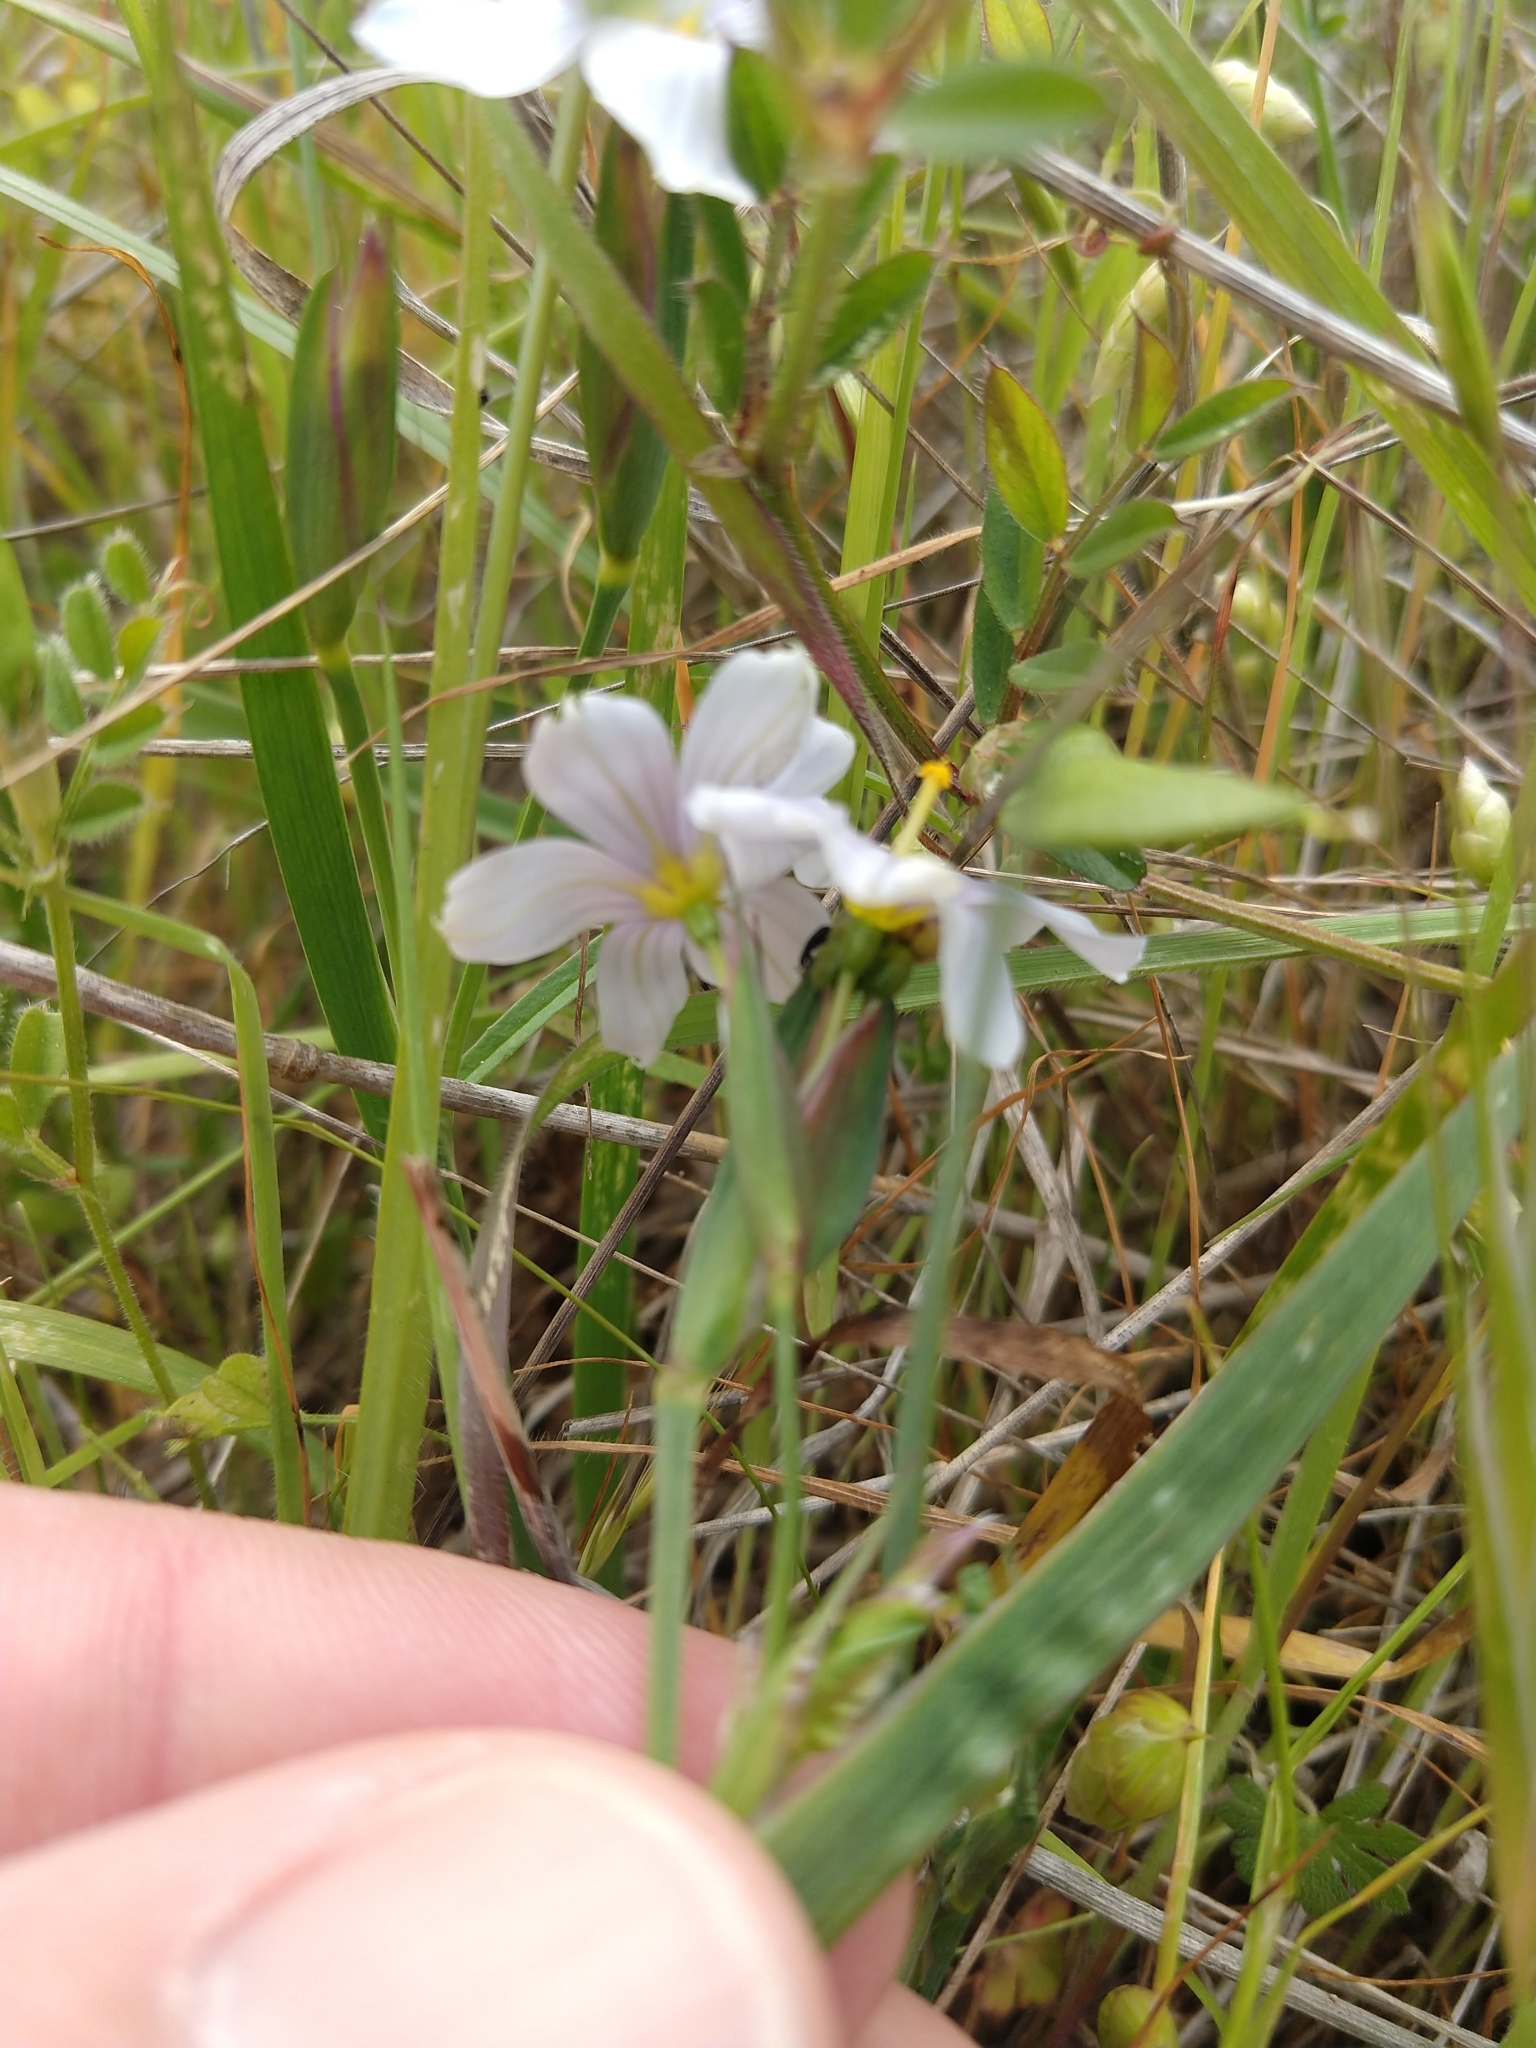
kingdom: Plantae
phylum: Tracheophyta
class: Liliopsida
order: Asparagales
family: Iridaceae
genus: Sisyrinchium
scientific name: Sisyrinchium bellum
